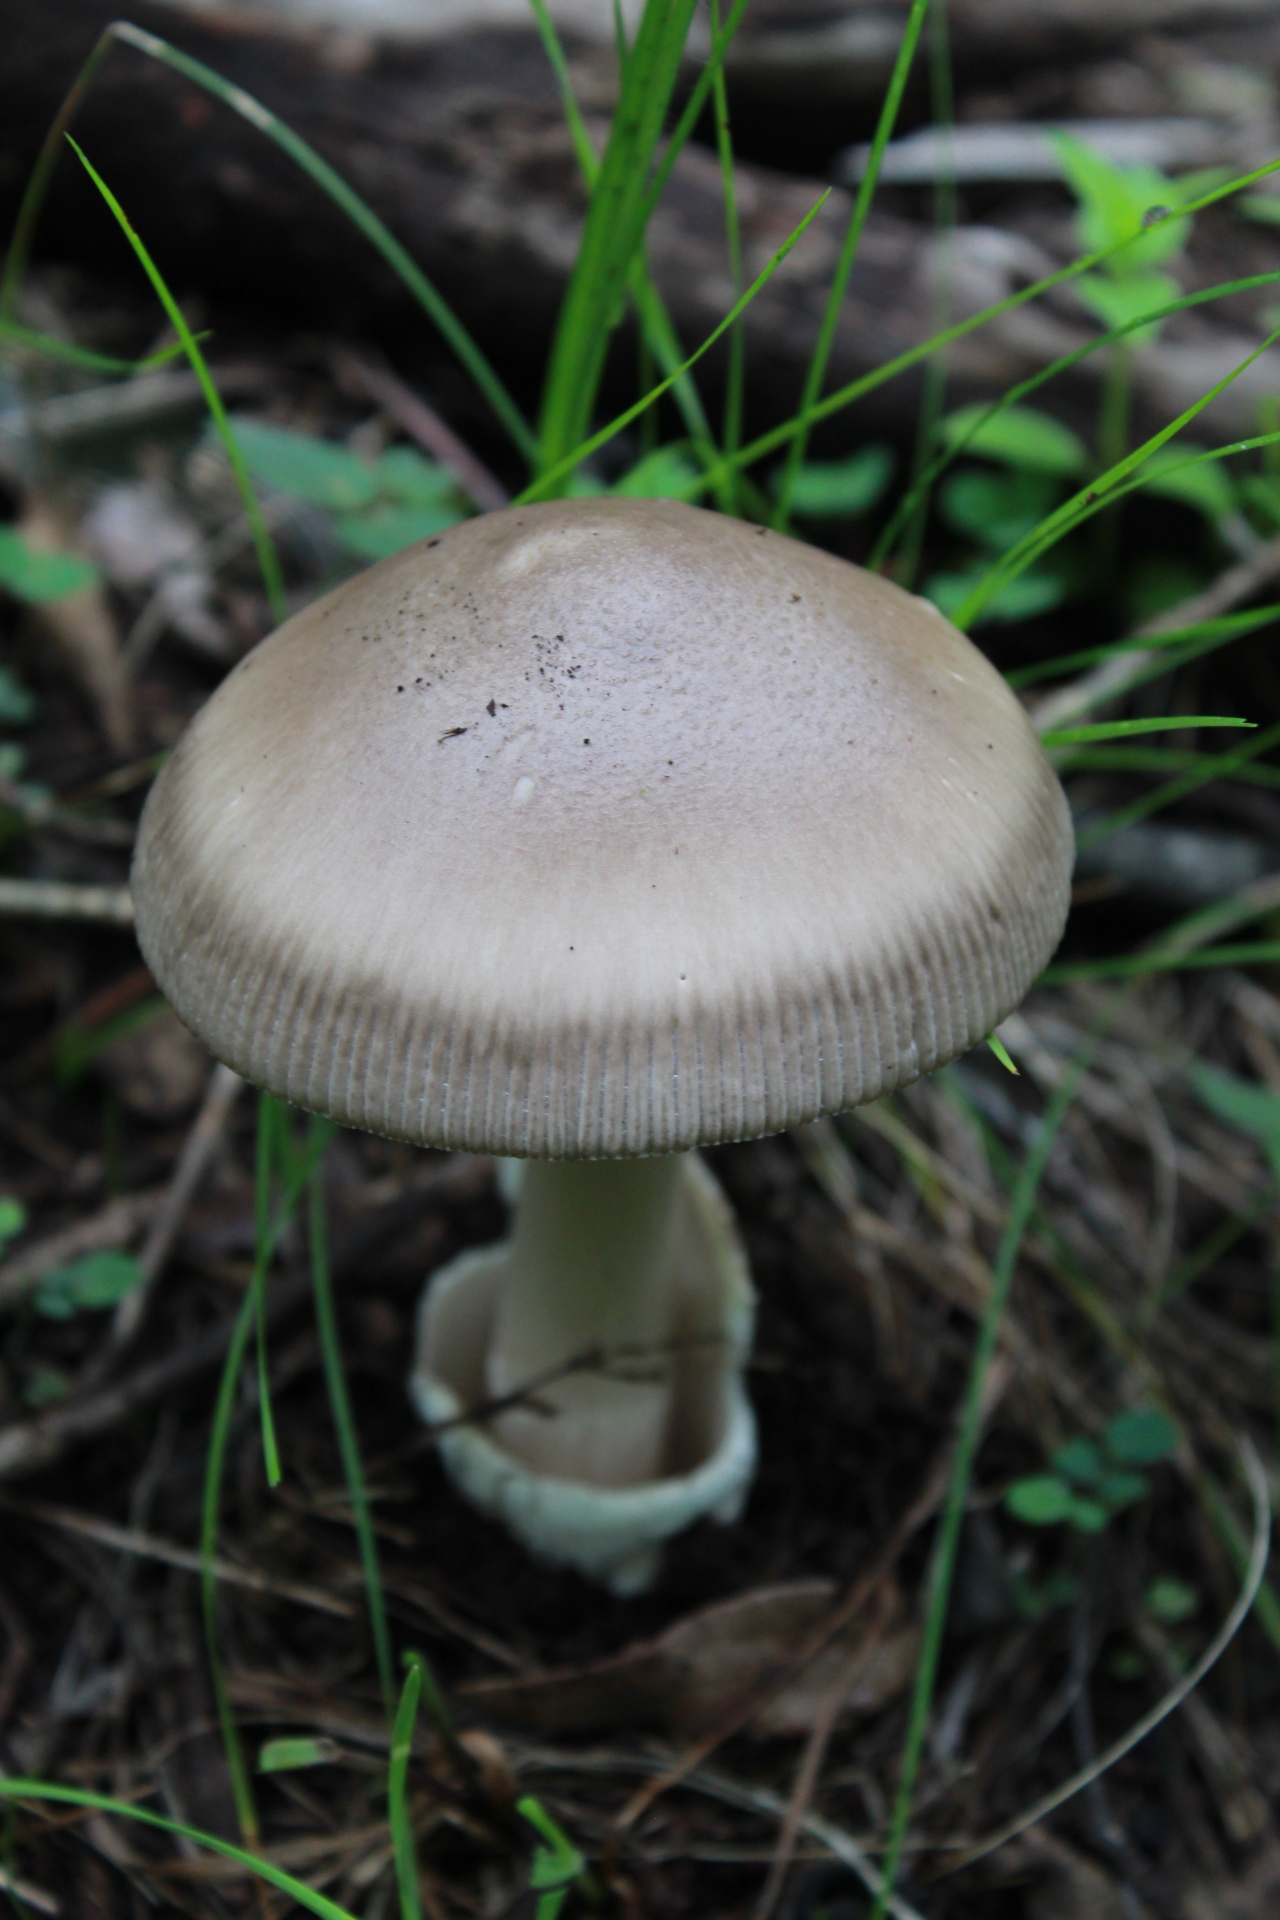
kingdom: Fungi
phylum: Basidiomycota
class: Agaricomycetes
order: Agaricales
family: Amanitaceae
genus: Amanita
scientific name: Amanita constricta
